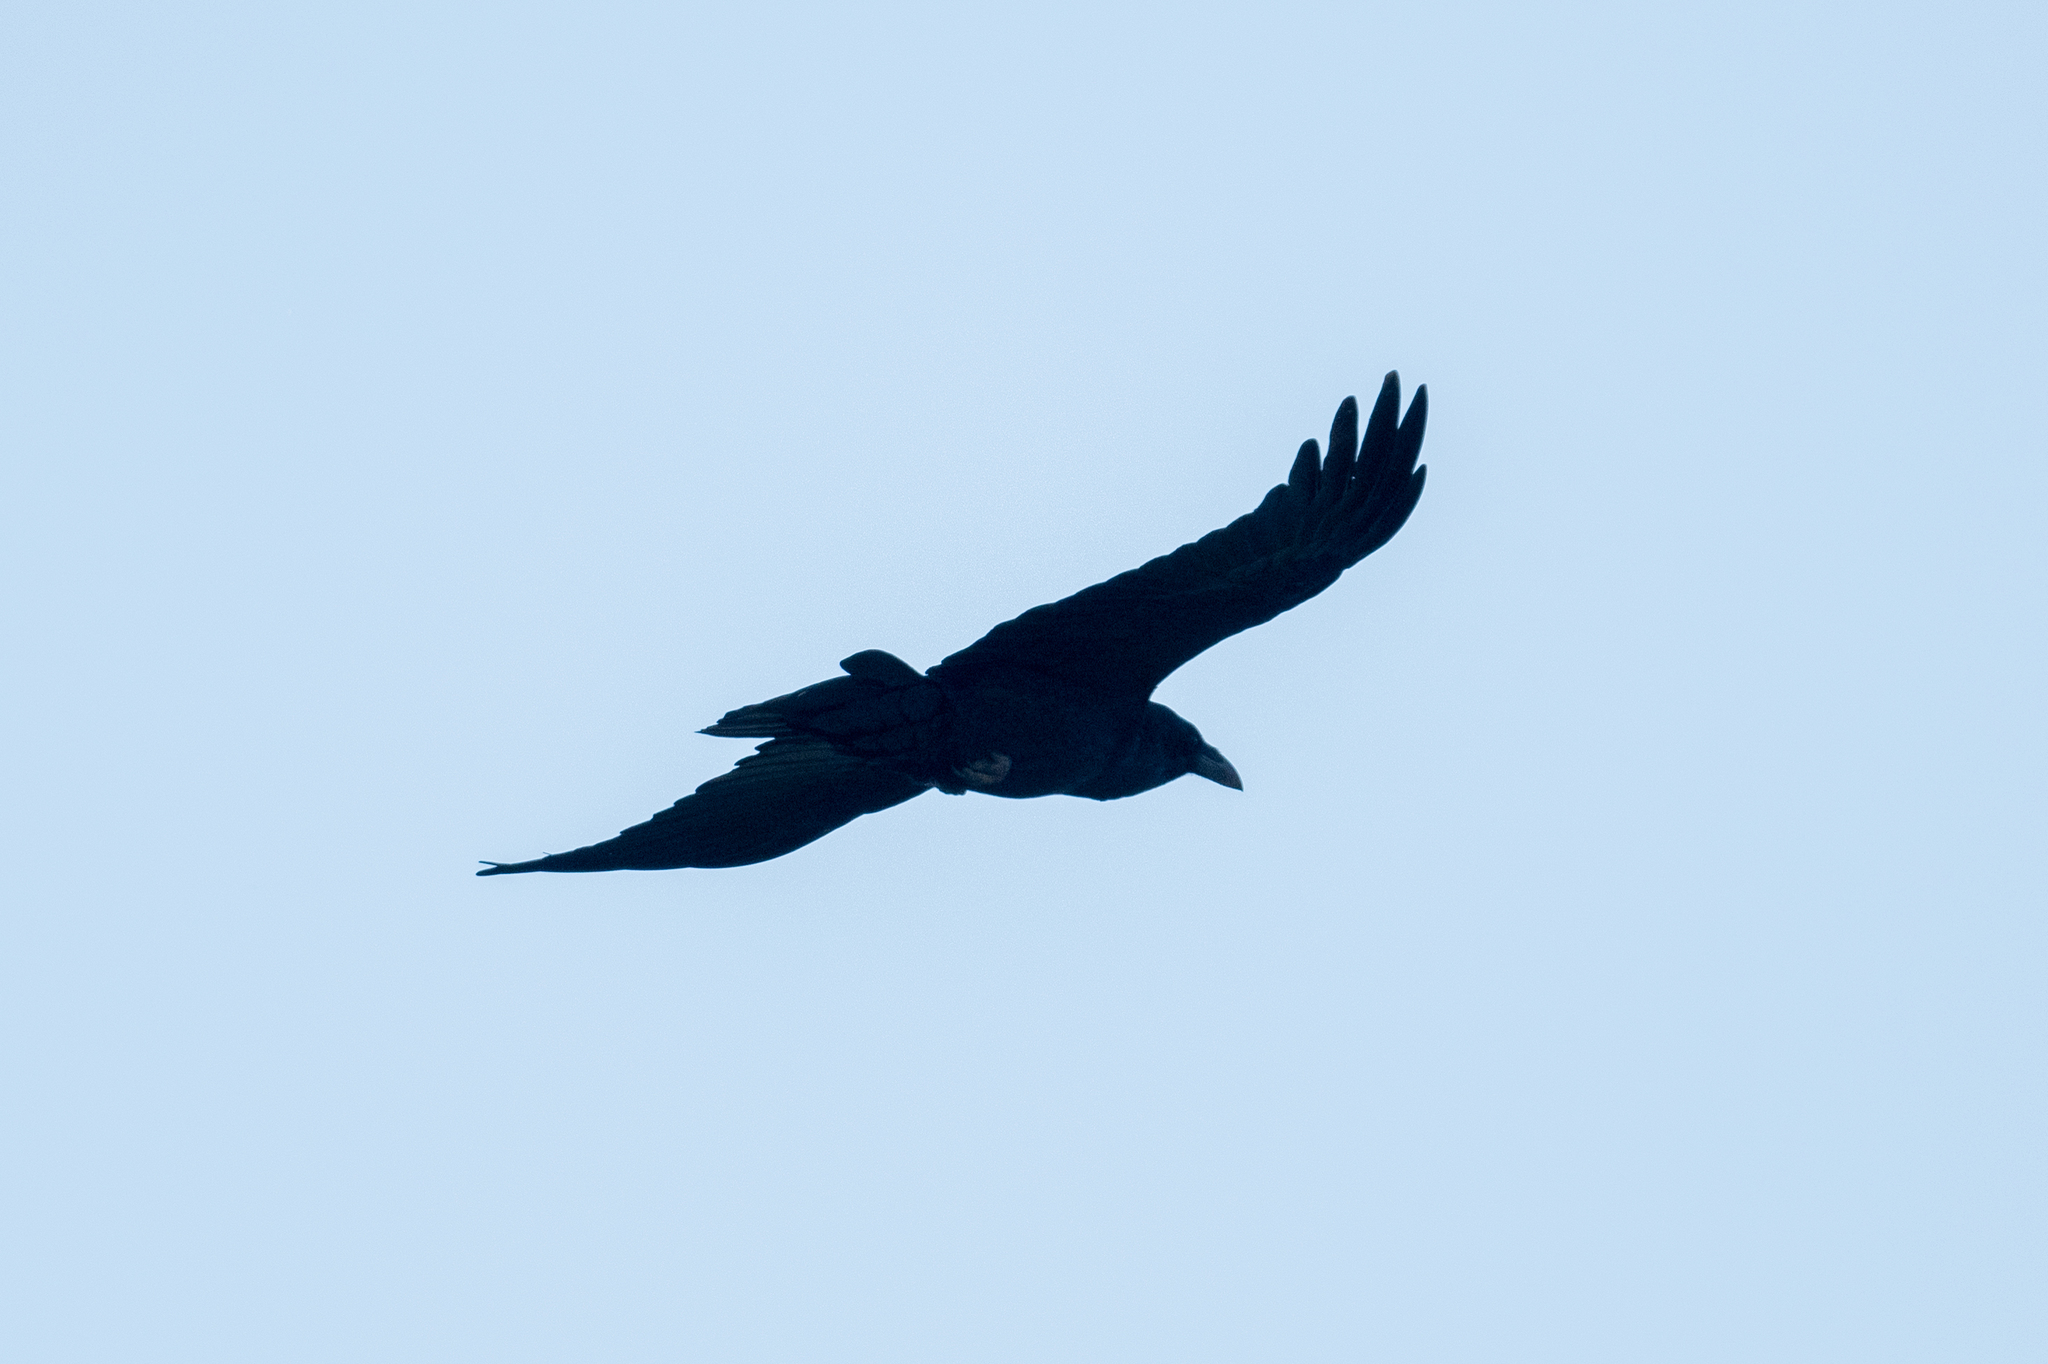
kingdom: Animalia
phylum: Chordata
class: Aves
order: Passeriformes
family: Corvidae
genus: Corvus
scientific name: Corvus corax
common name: Common raven
